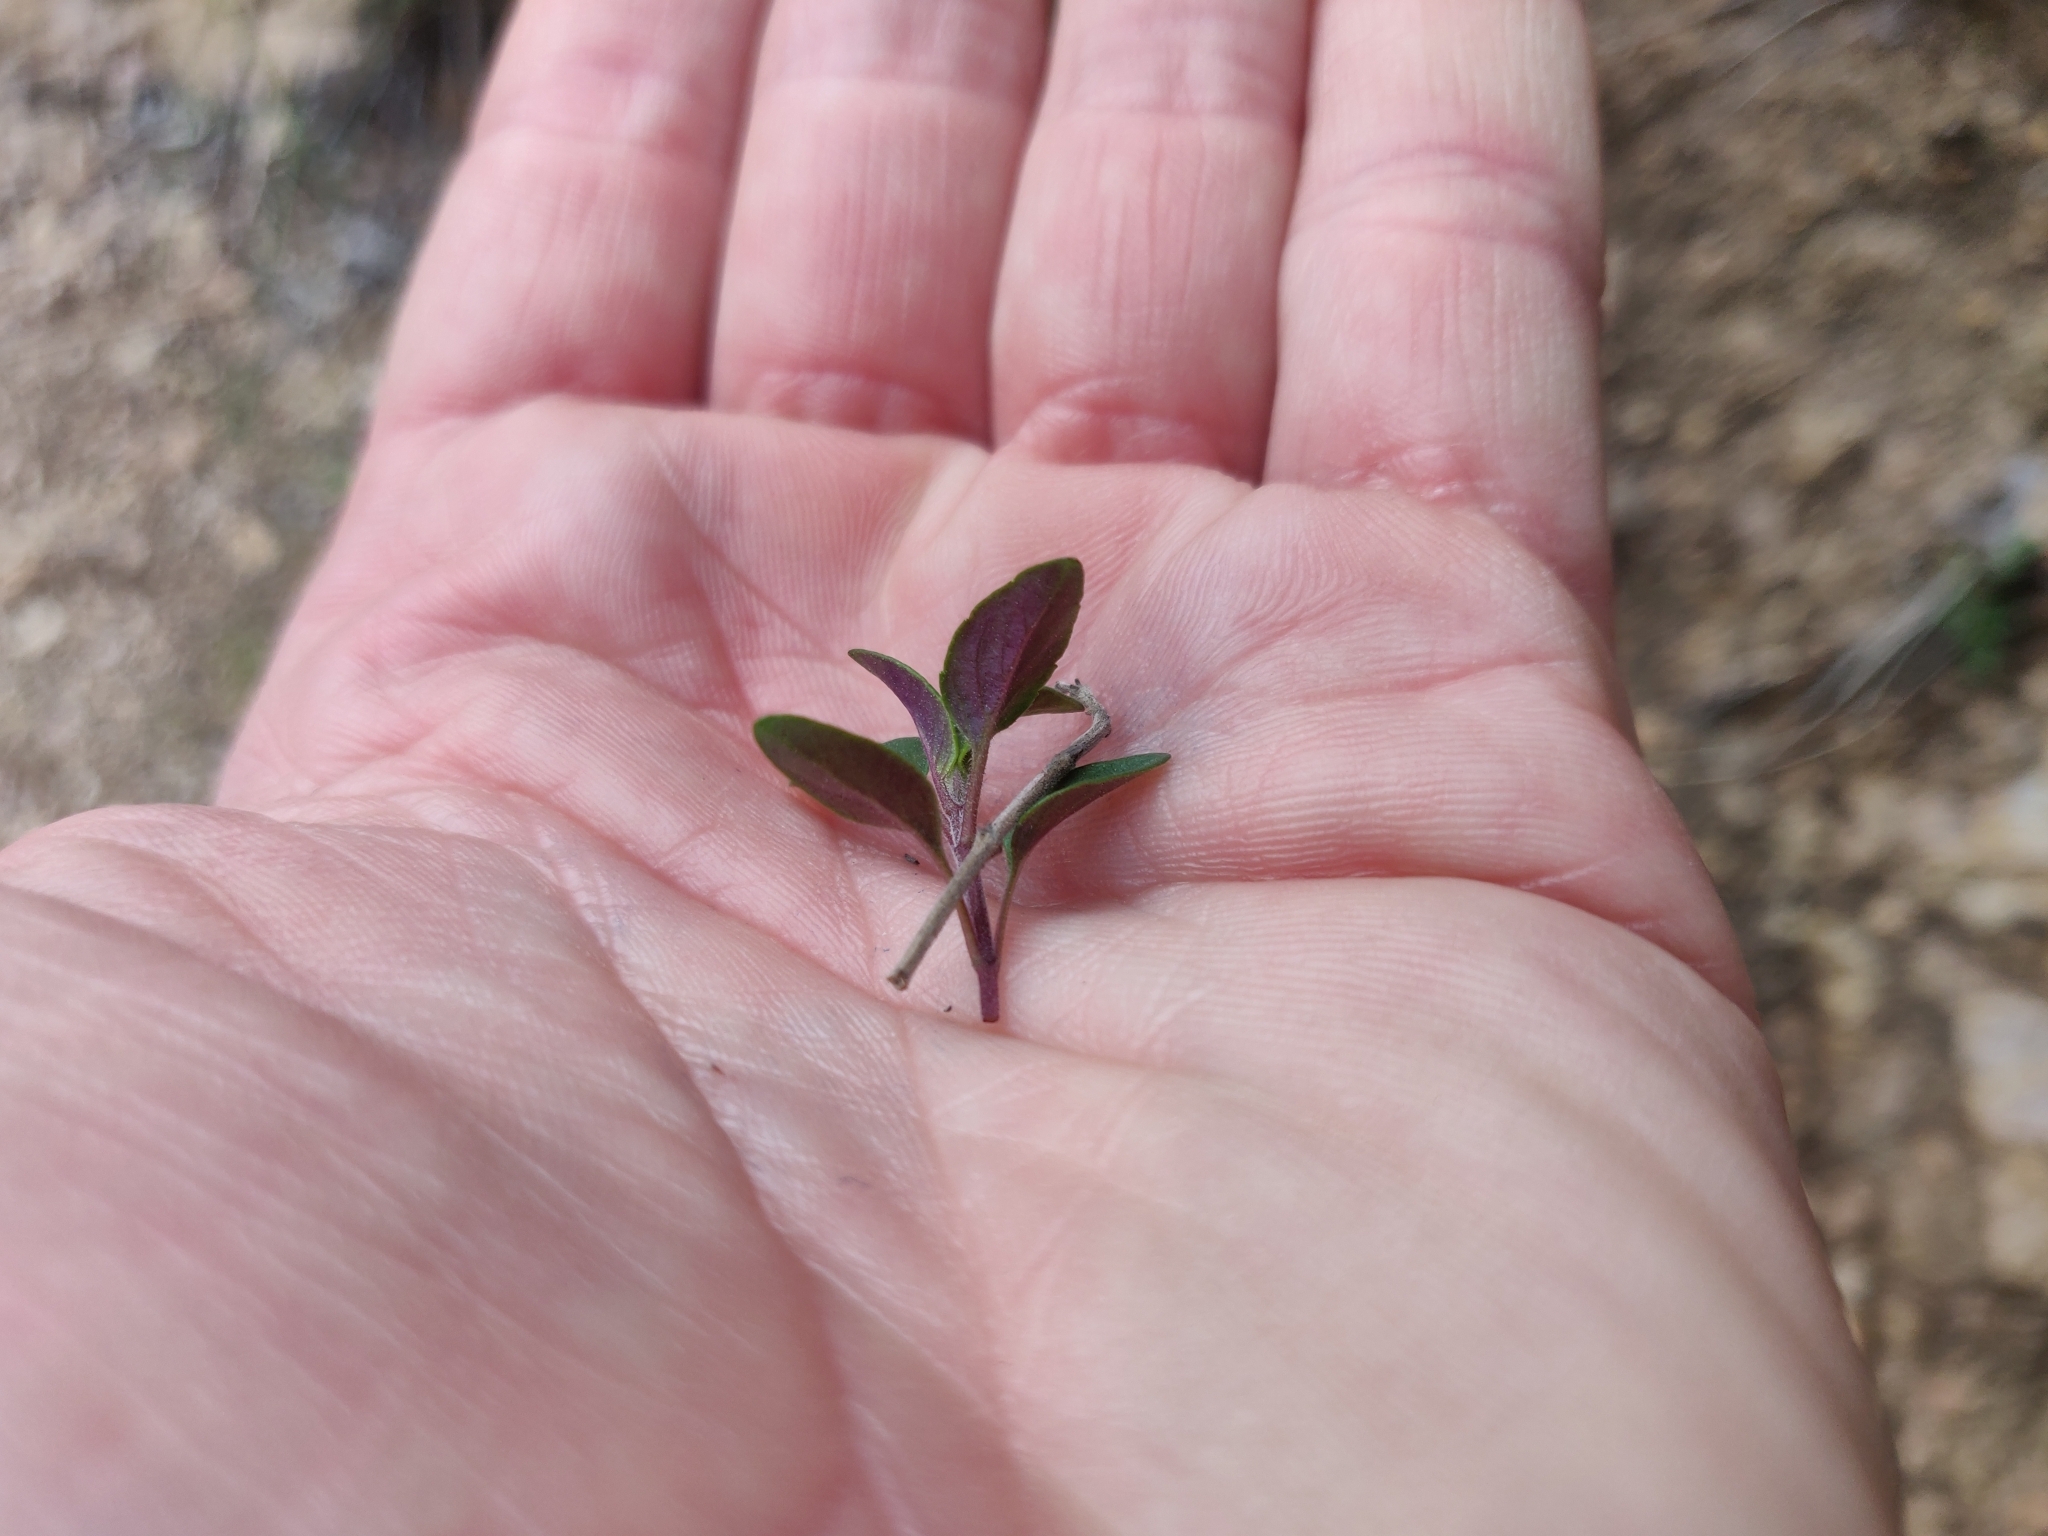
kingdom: Plantae
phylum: Tracheophyta
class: Magnoliopsida
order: Lamiales
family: Lamiaceae
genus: Monardella
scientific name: Monardella odoratissima
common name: Pacific monardella
